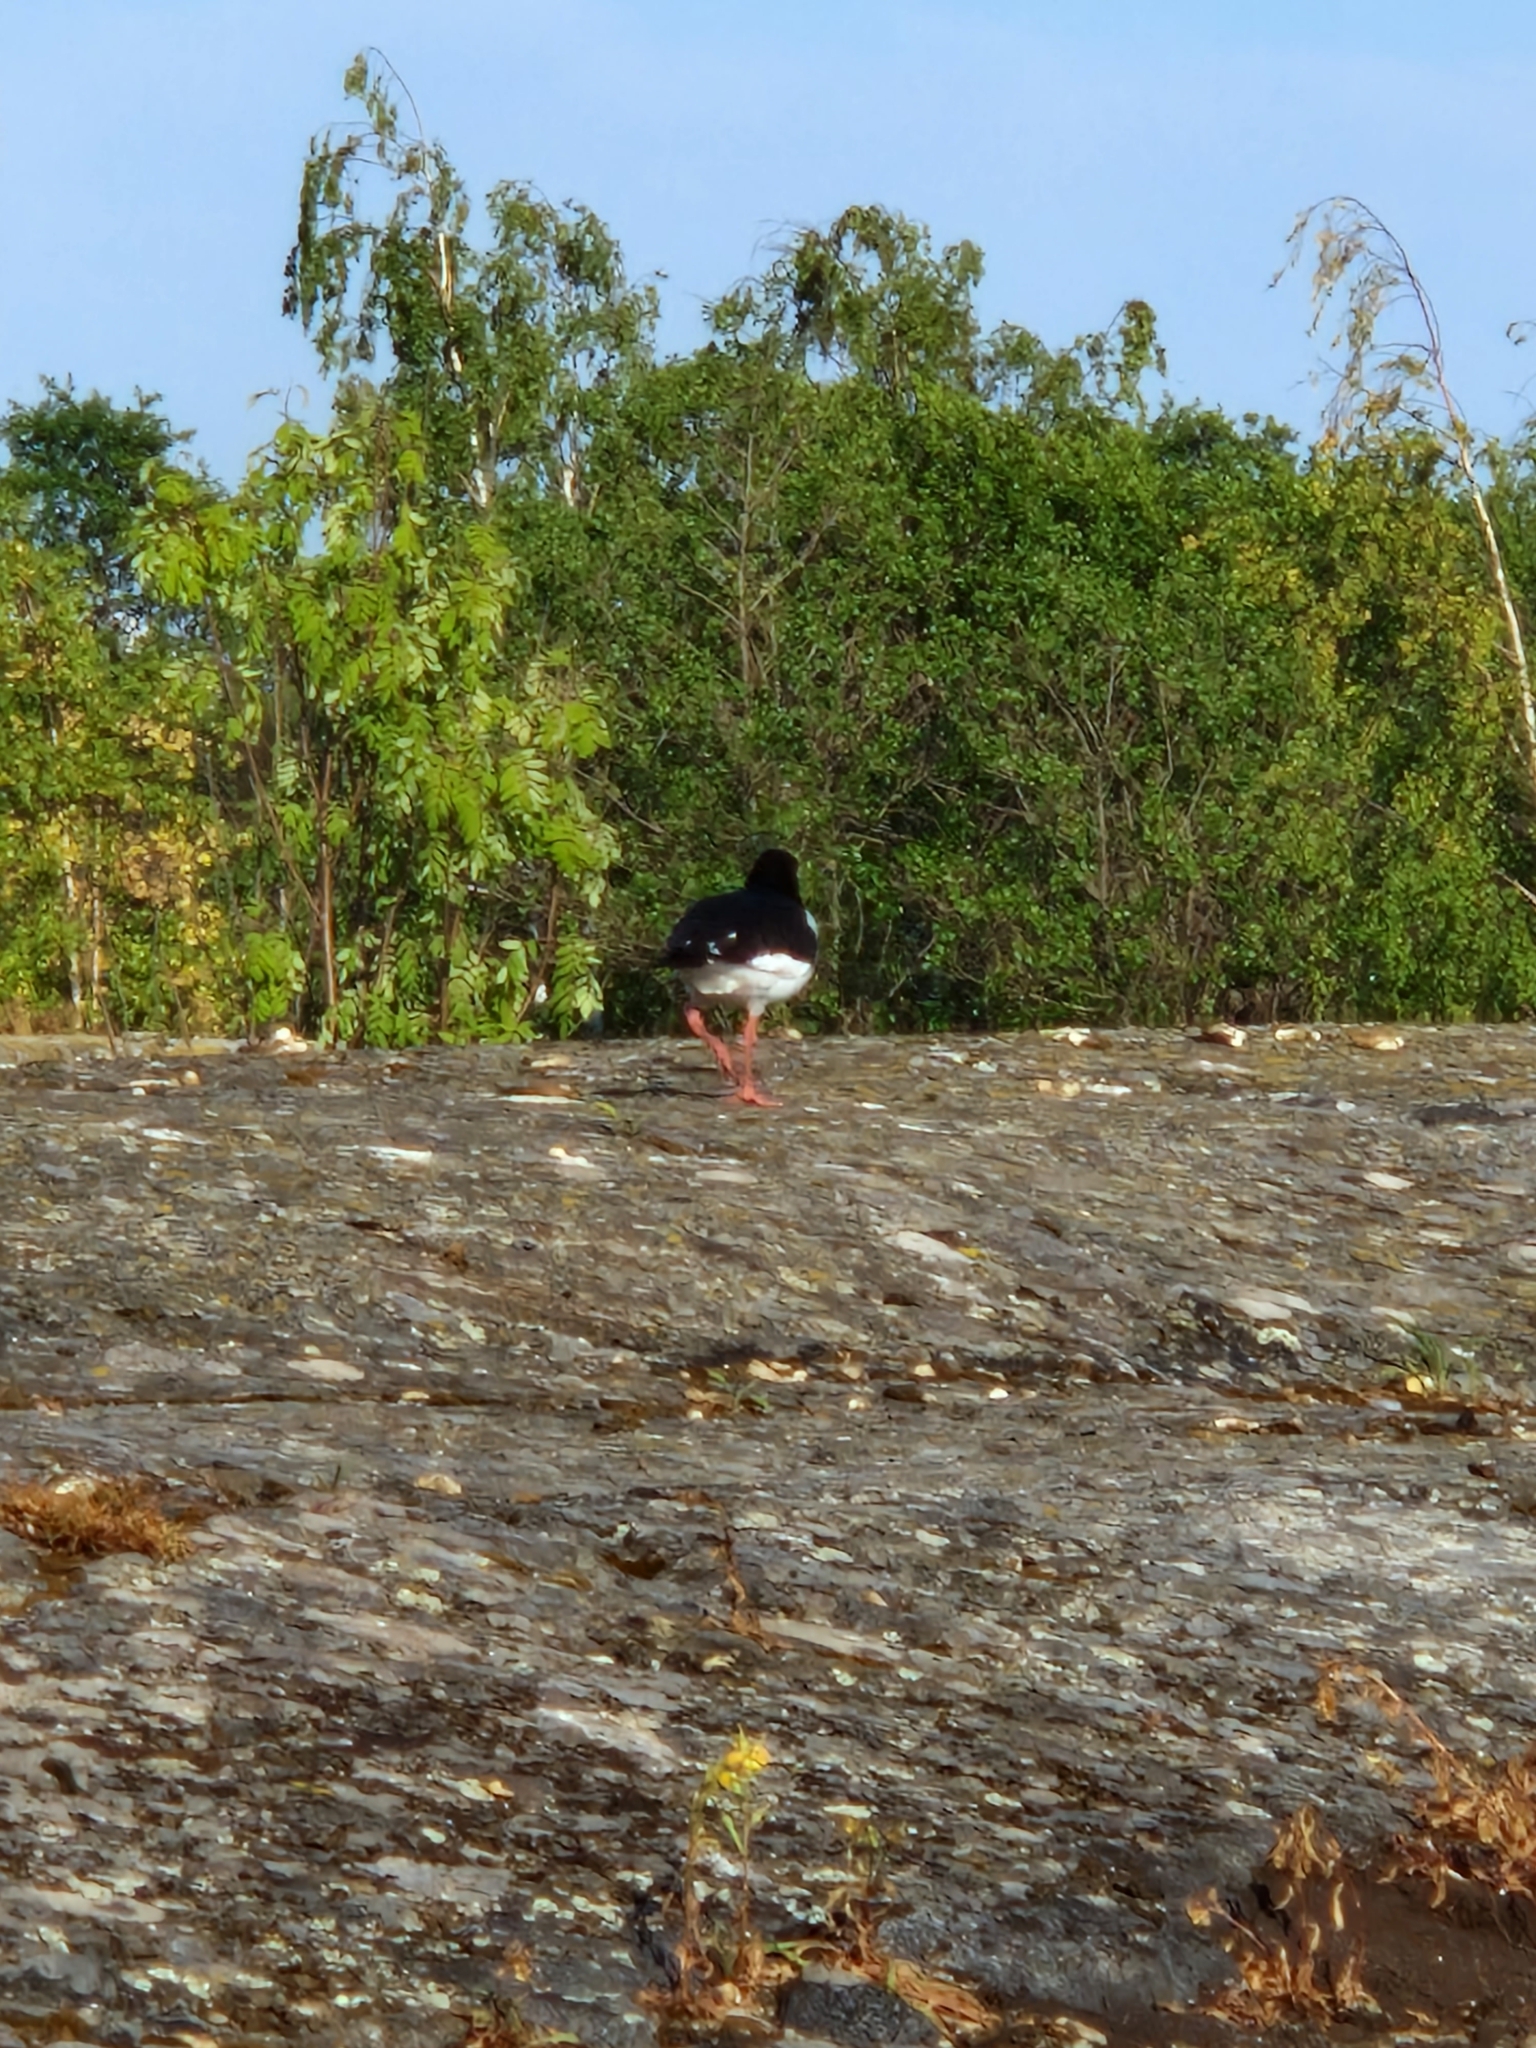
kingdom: Animalia
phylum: Chordata
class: Aves
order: Charadriiformes
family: Haematopodidae
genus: Haematopus
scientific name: Haematopus ostralegus
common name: Eurasian oystercatcher
